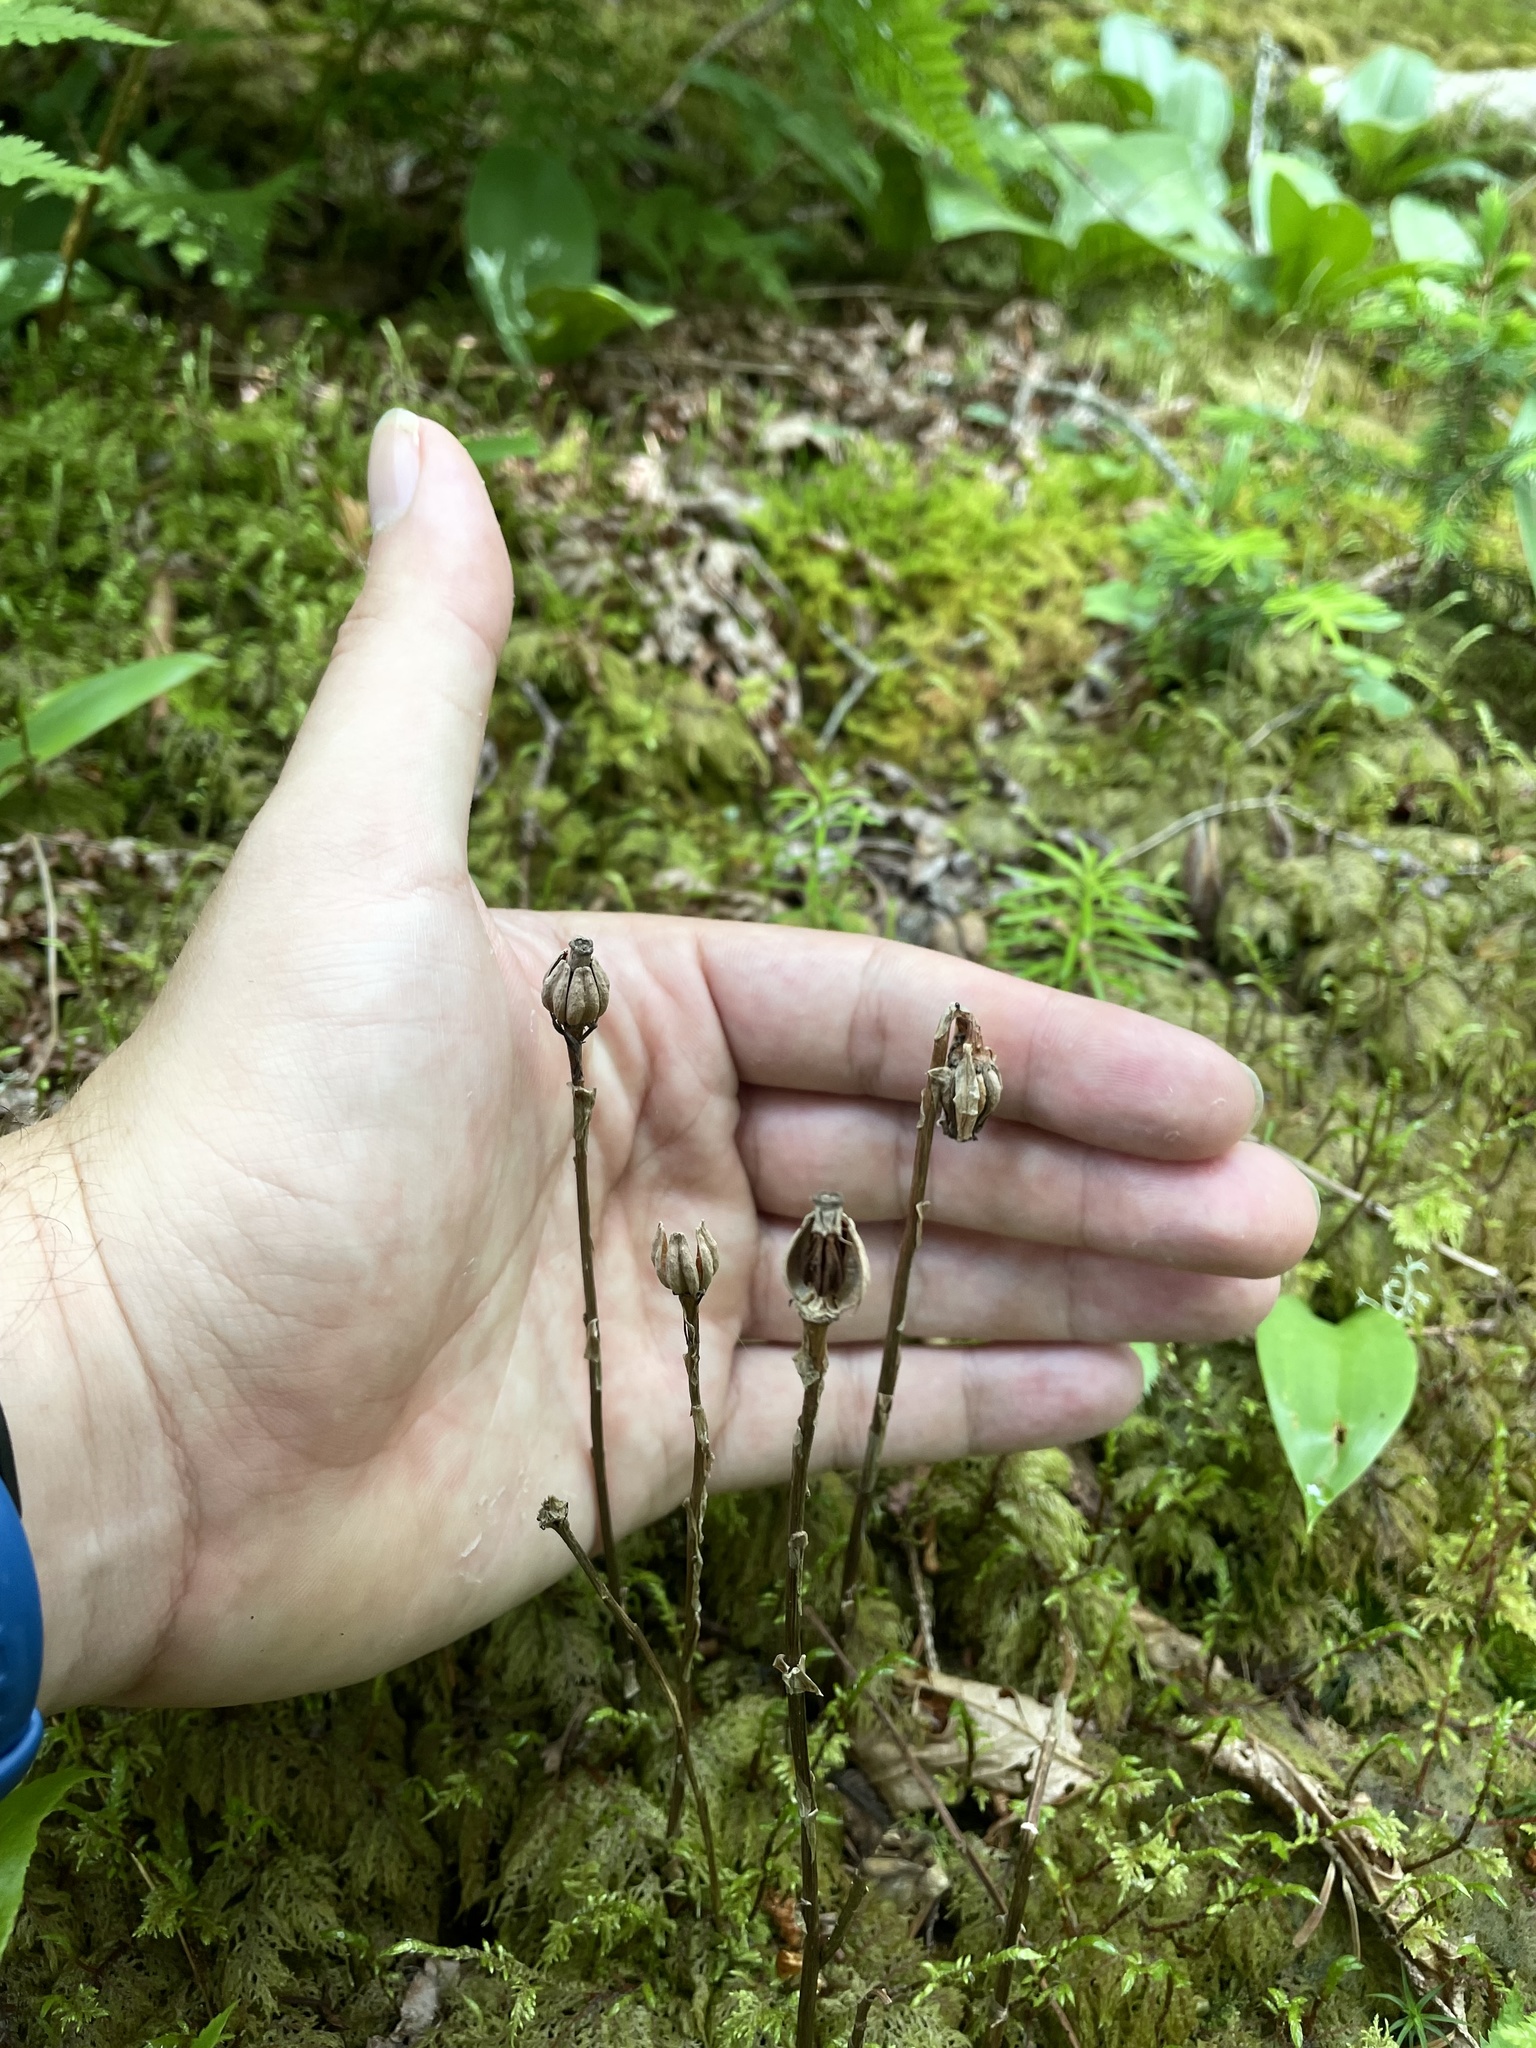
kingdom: Plantae
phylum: Tracheophyta
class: Magnoliopsida
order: Ericales
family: Ericaceae
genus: Monotropa
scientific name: Monotropa uniflora
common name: Convulsion root
